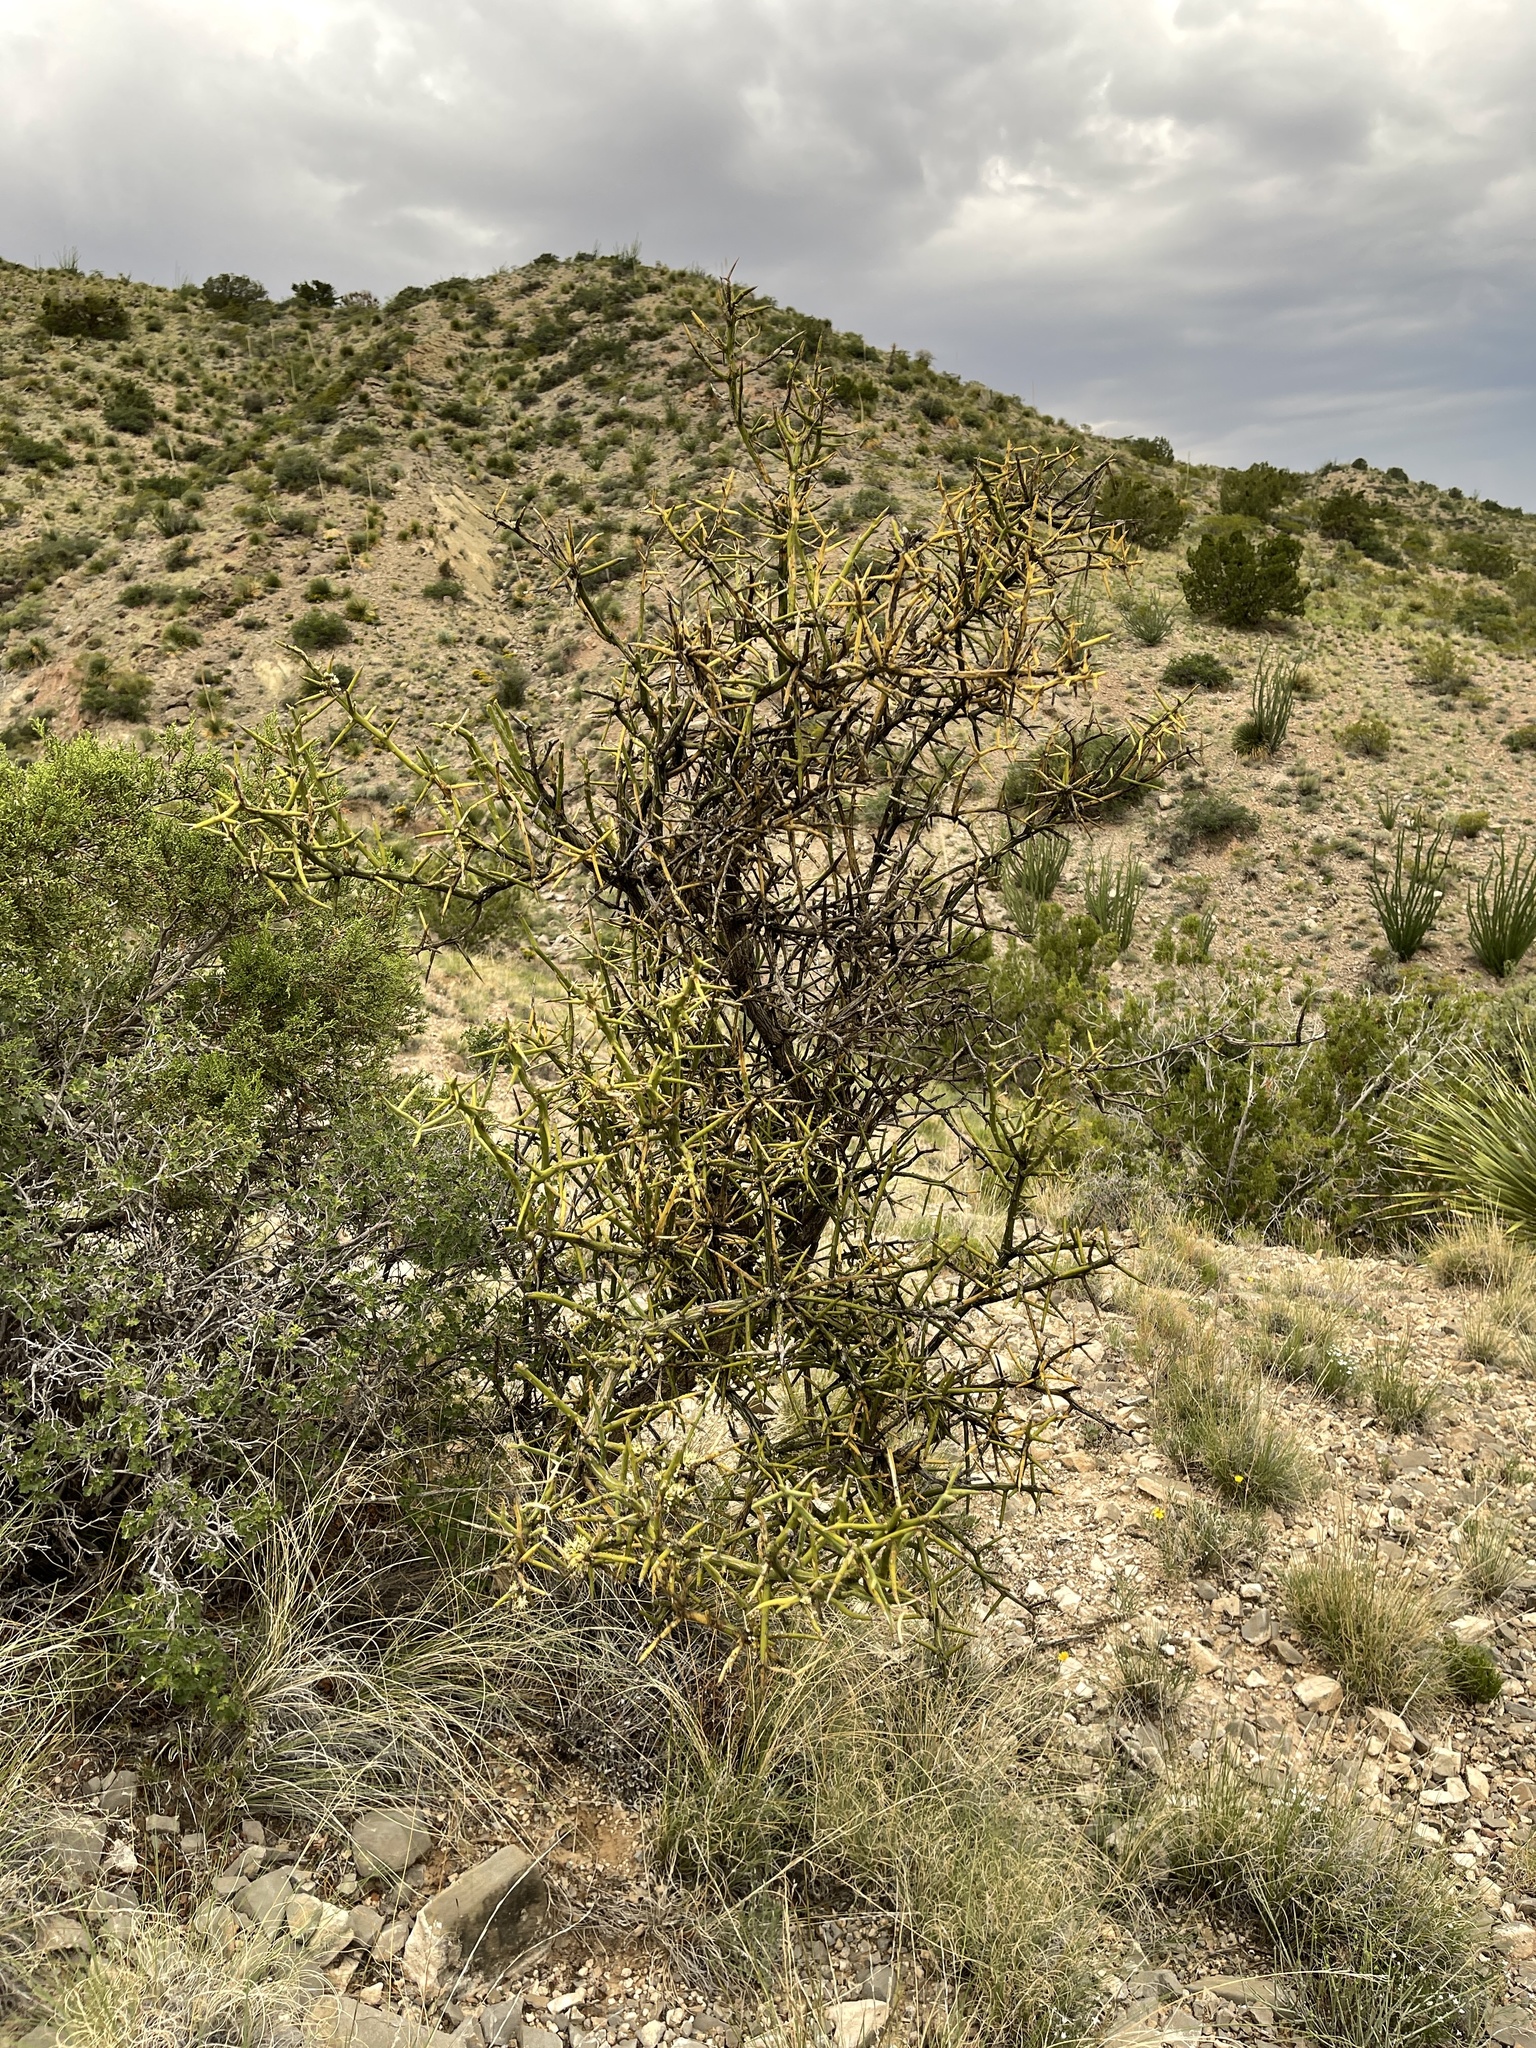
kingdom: Plantae
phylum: Tracheophyta
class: Magnoliopsida
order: Brassicales
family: Koeberliniaceae
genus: Koeberlinia
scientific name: Koeberlinia spinosa
